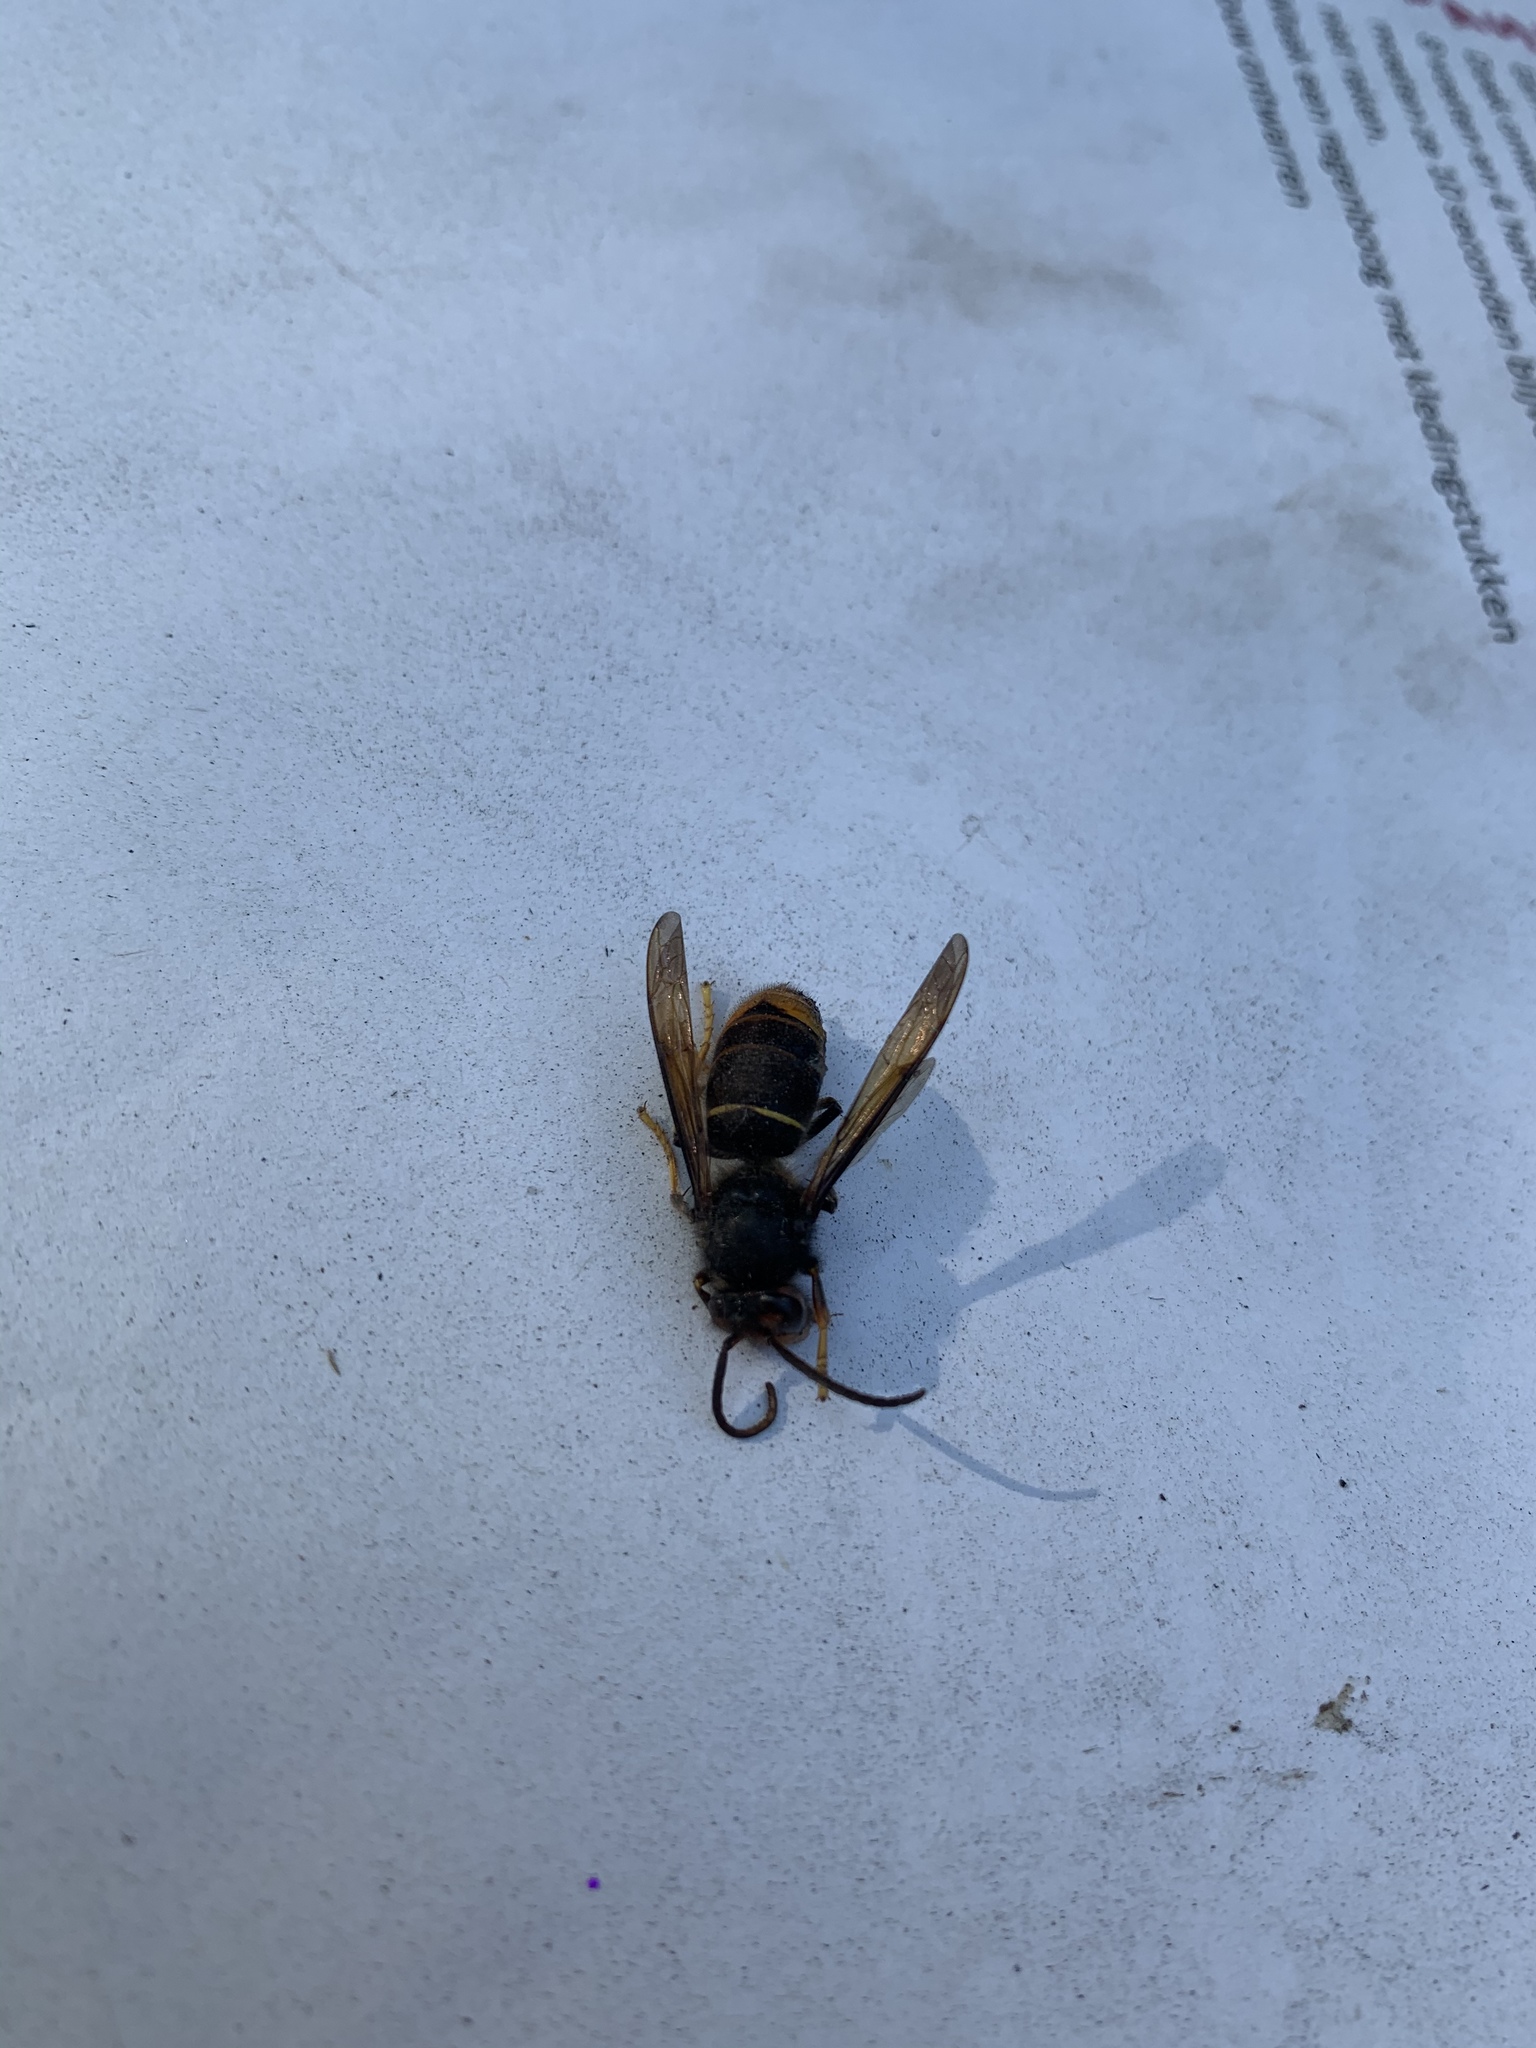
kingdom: Animalia
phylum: Arthropoda
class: Insecta
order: Hymenoptera
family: Vespidae
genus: Vespa
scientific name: Vespa velutina
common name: Asian hornet
